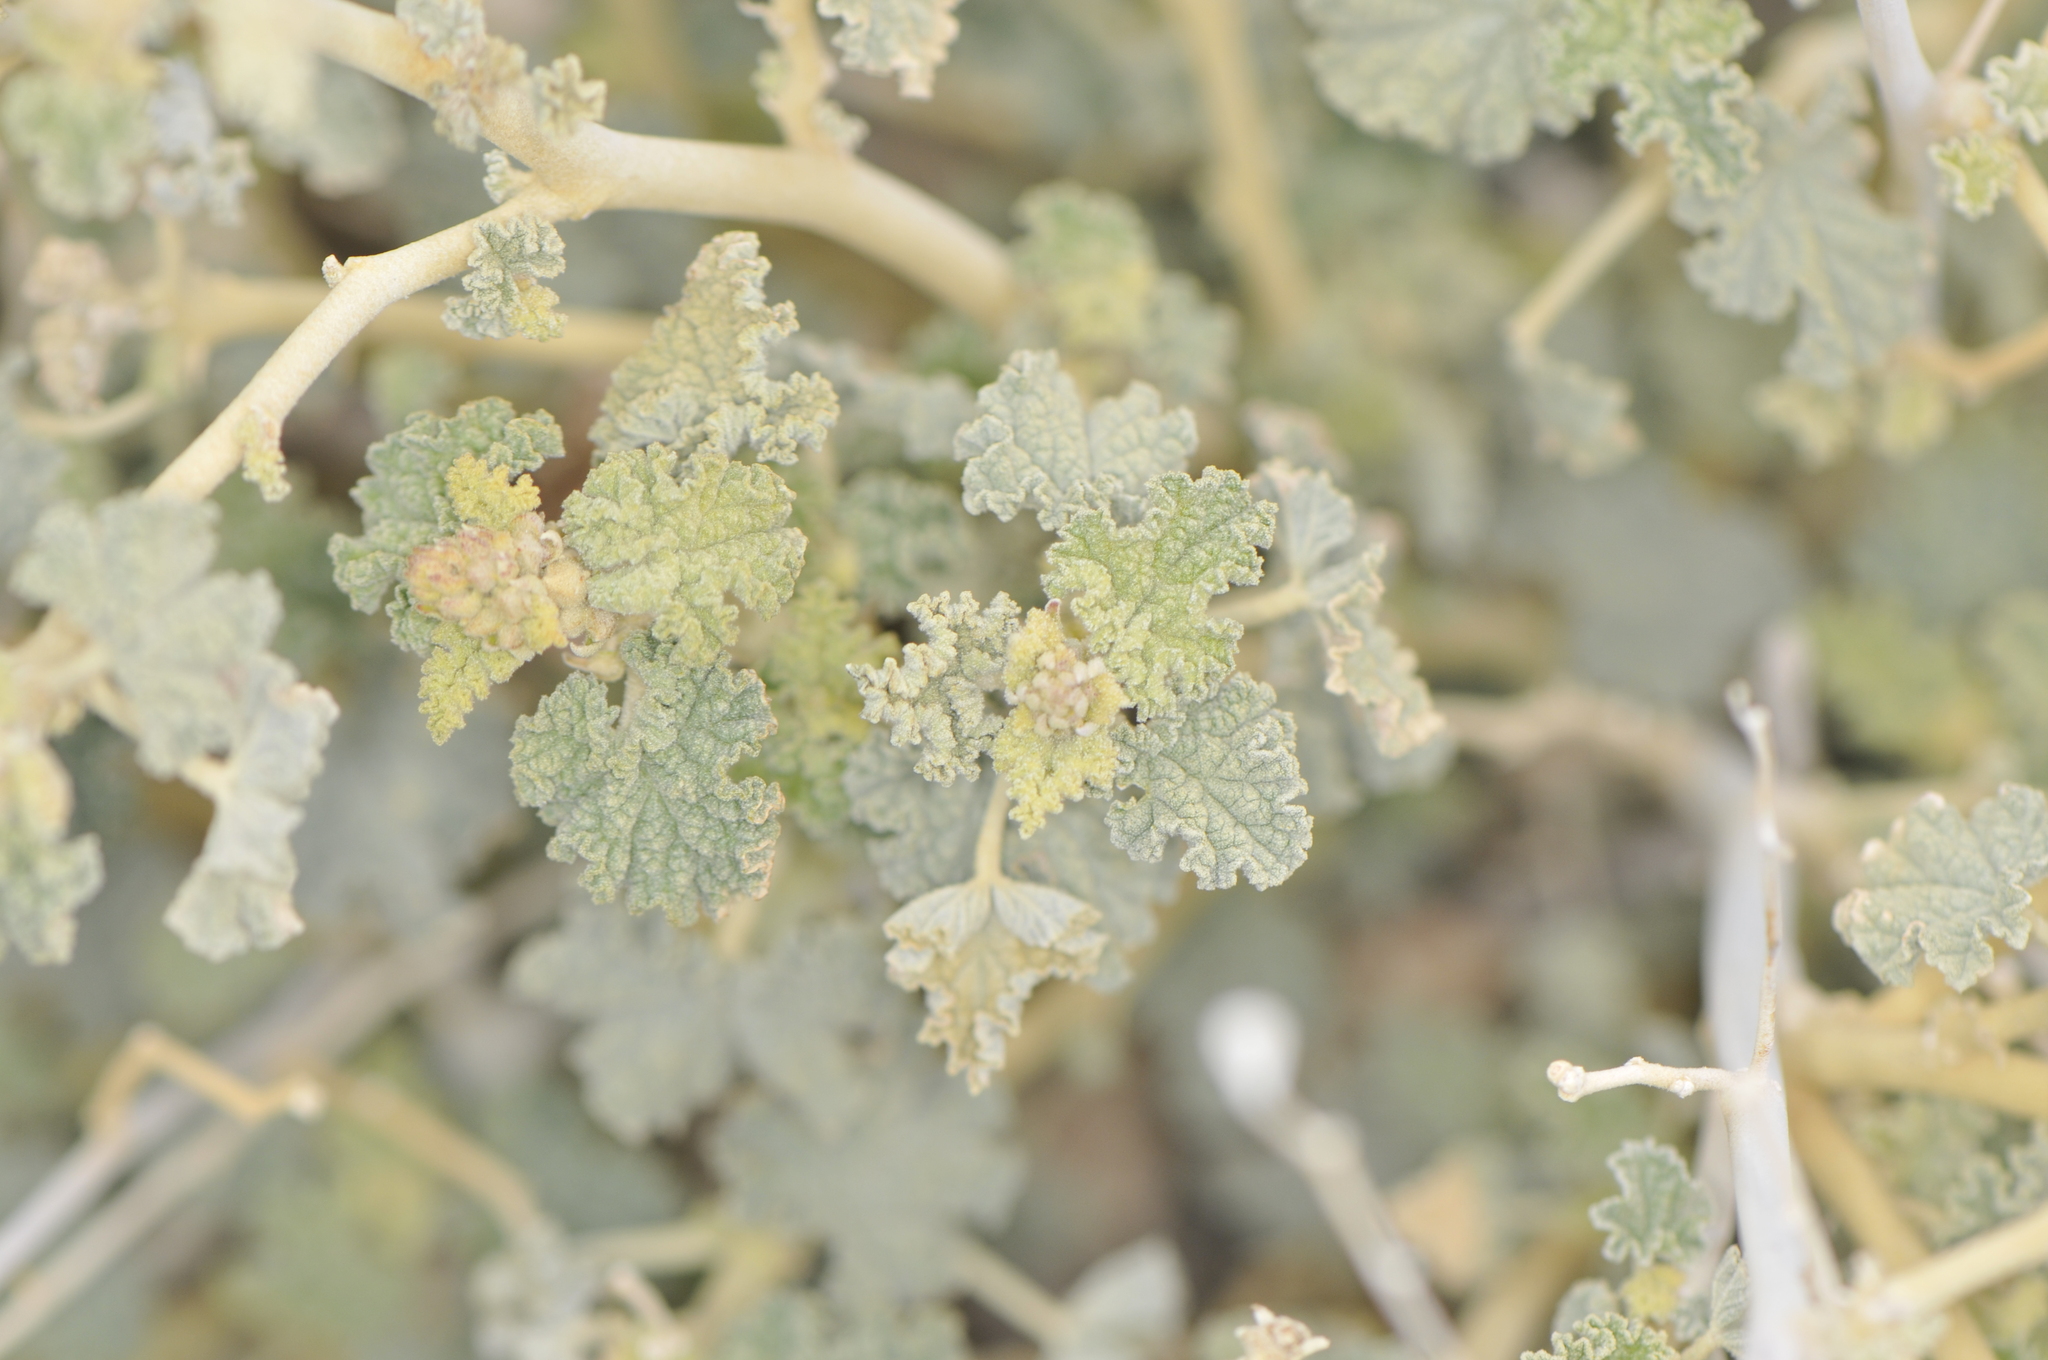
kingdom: Plantae
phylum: Tracheophyta
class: Magnoliopsida
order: Malvales
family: Malvaceae
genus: Sphaeralcea
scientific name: Sphaeralcea ambigua
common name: Apricot globe-mallow
